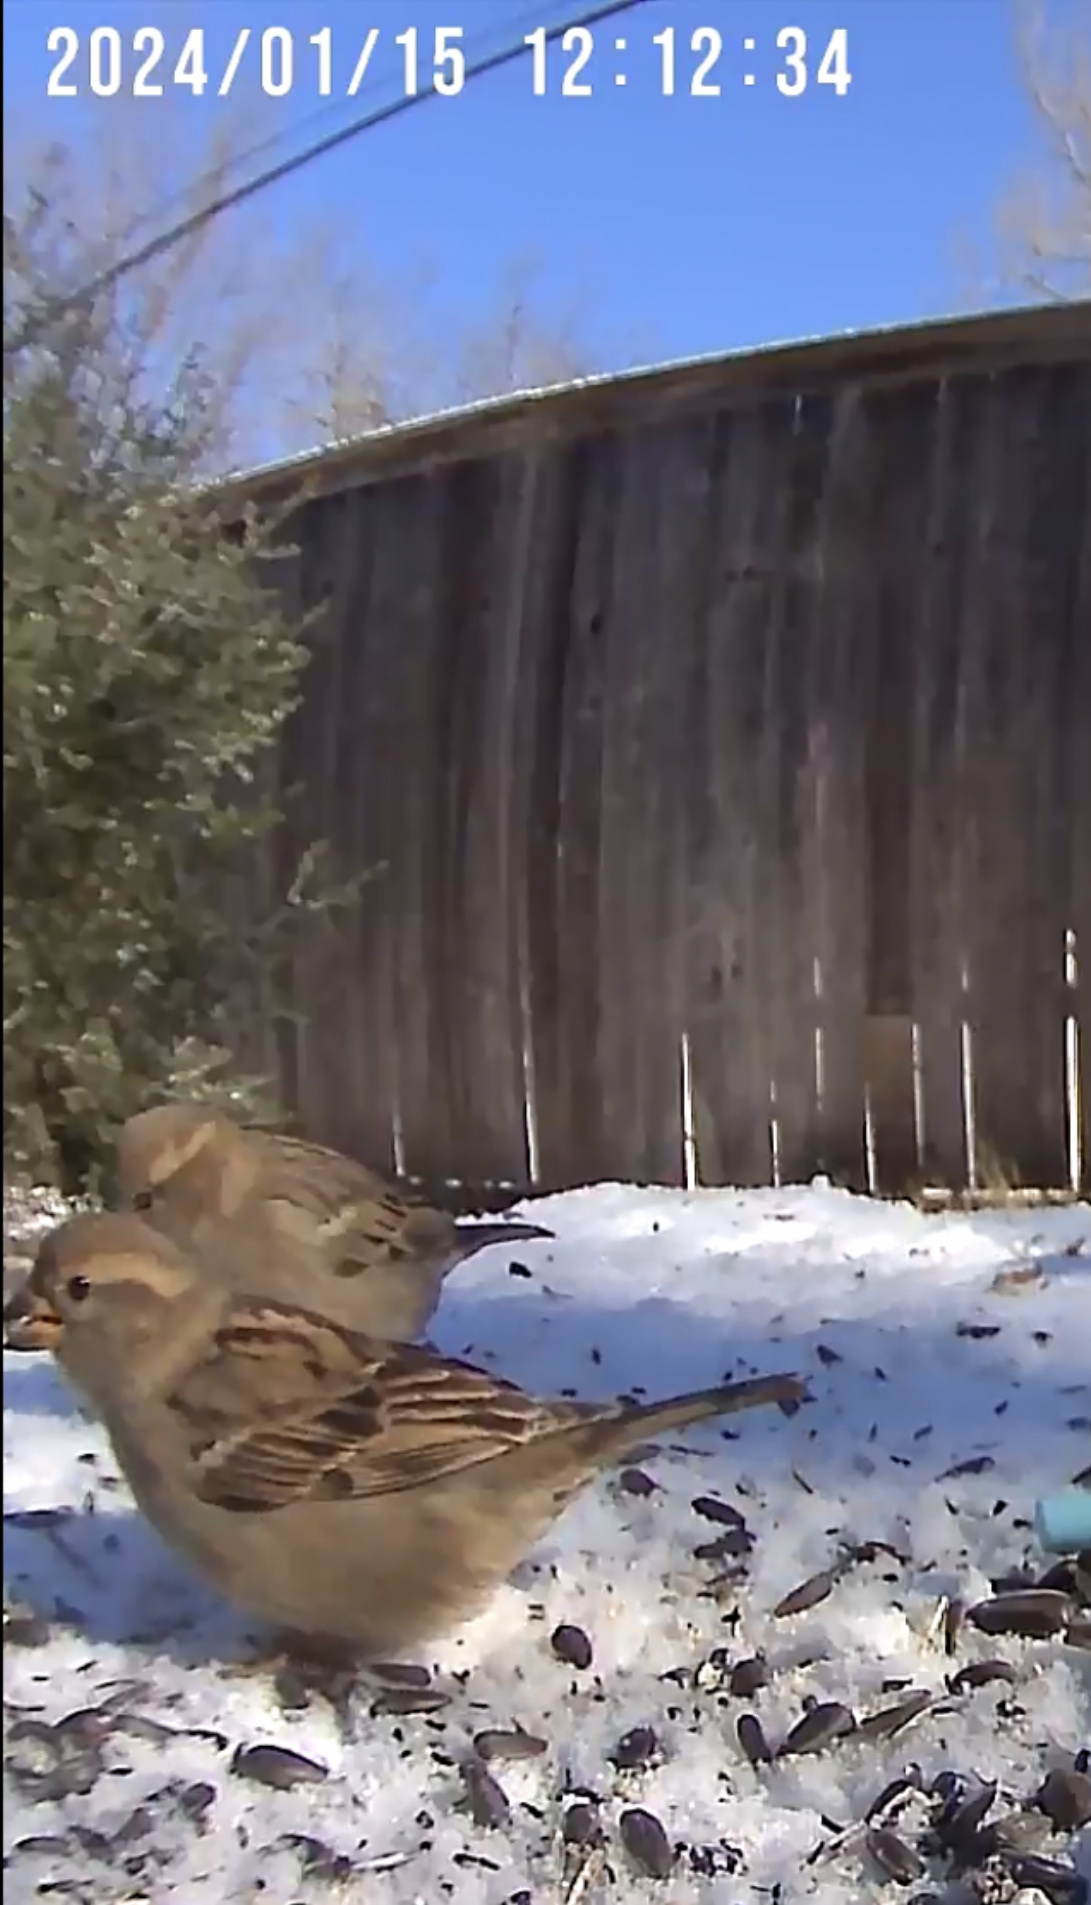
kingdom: Animalia
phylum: Chordata
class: Aves
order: Passeriformes
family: Passeridae
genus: Passer
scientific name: Passer domesticus
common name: House sparrow
